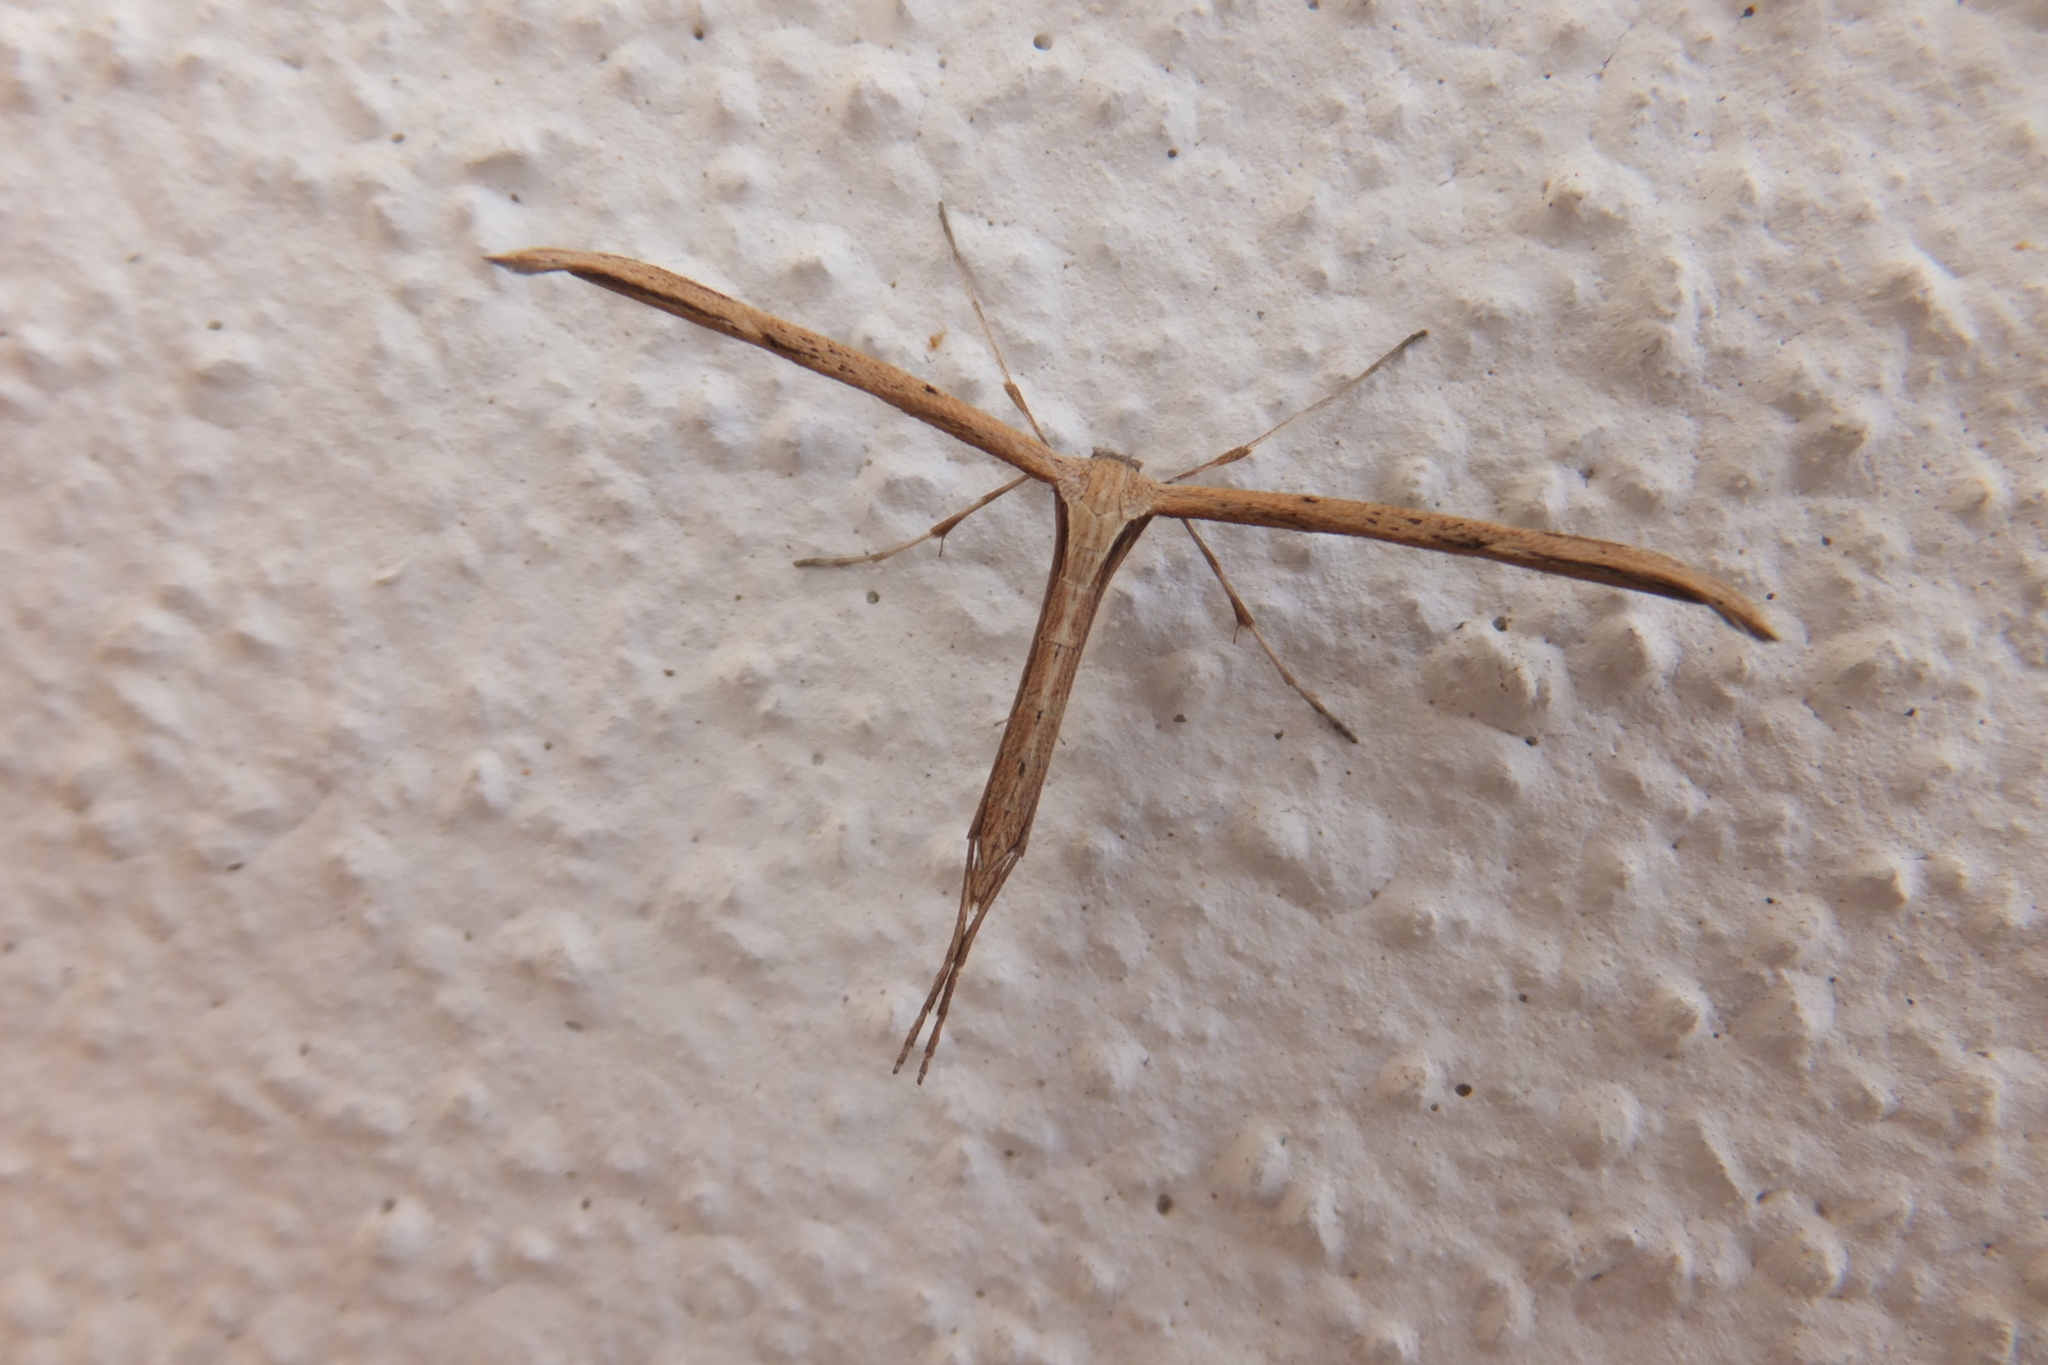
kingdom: Animalia
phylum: Arthropoda
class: Insecta
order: Lepidoptera
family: Pterophoridae
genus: Emmelina
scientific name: Emmelina monodactyla
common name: Common plume
